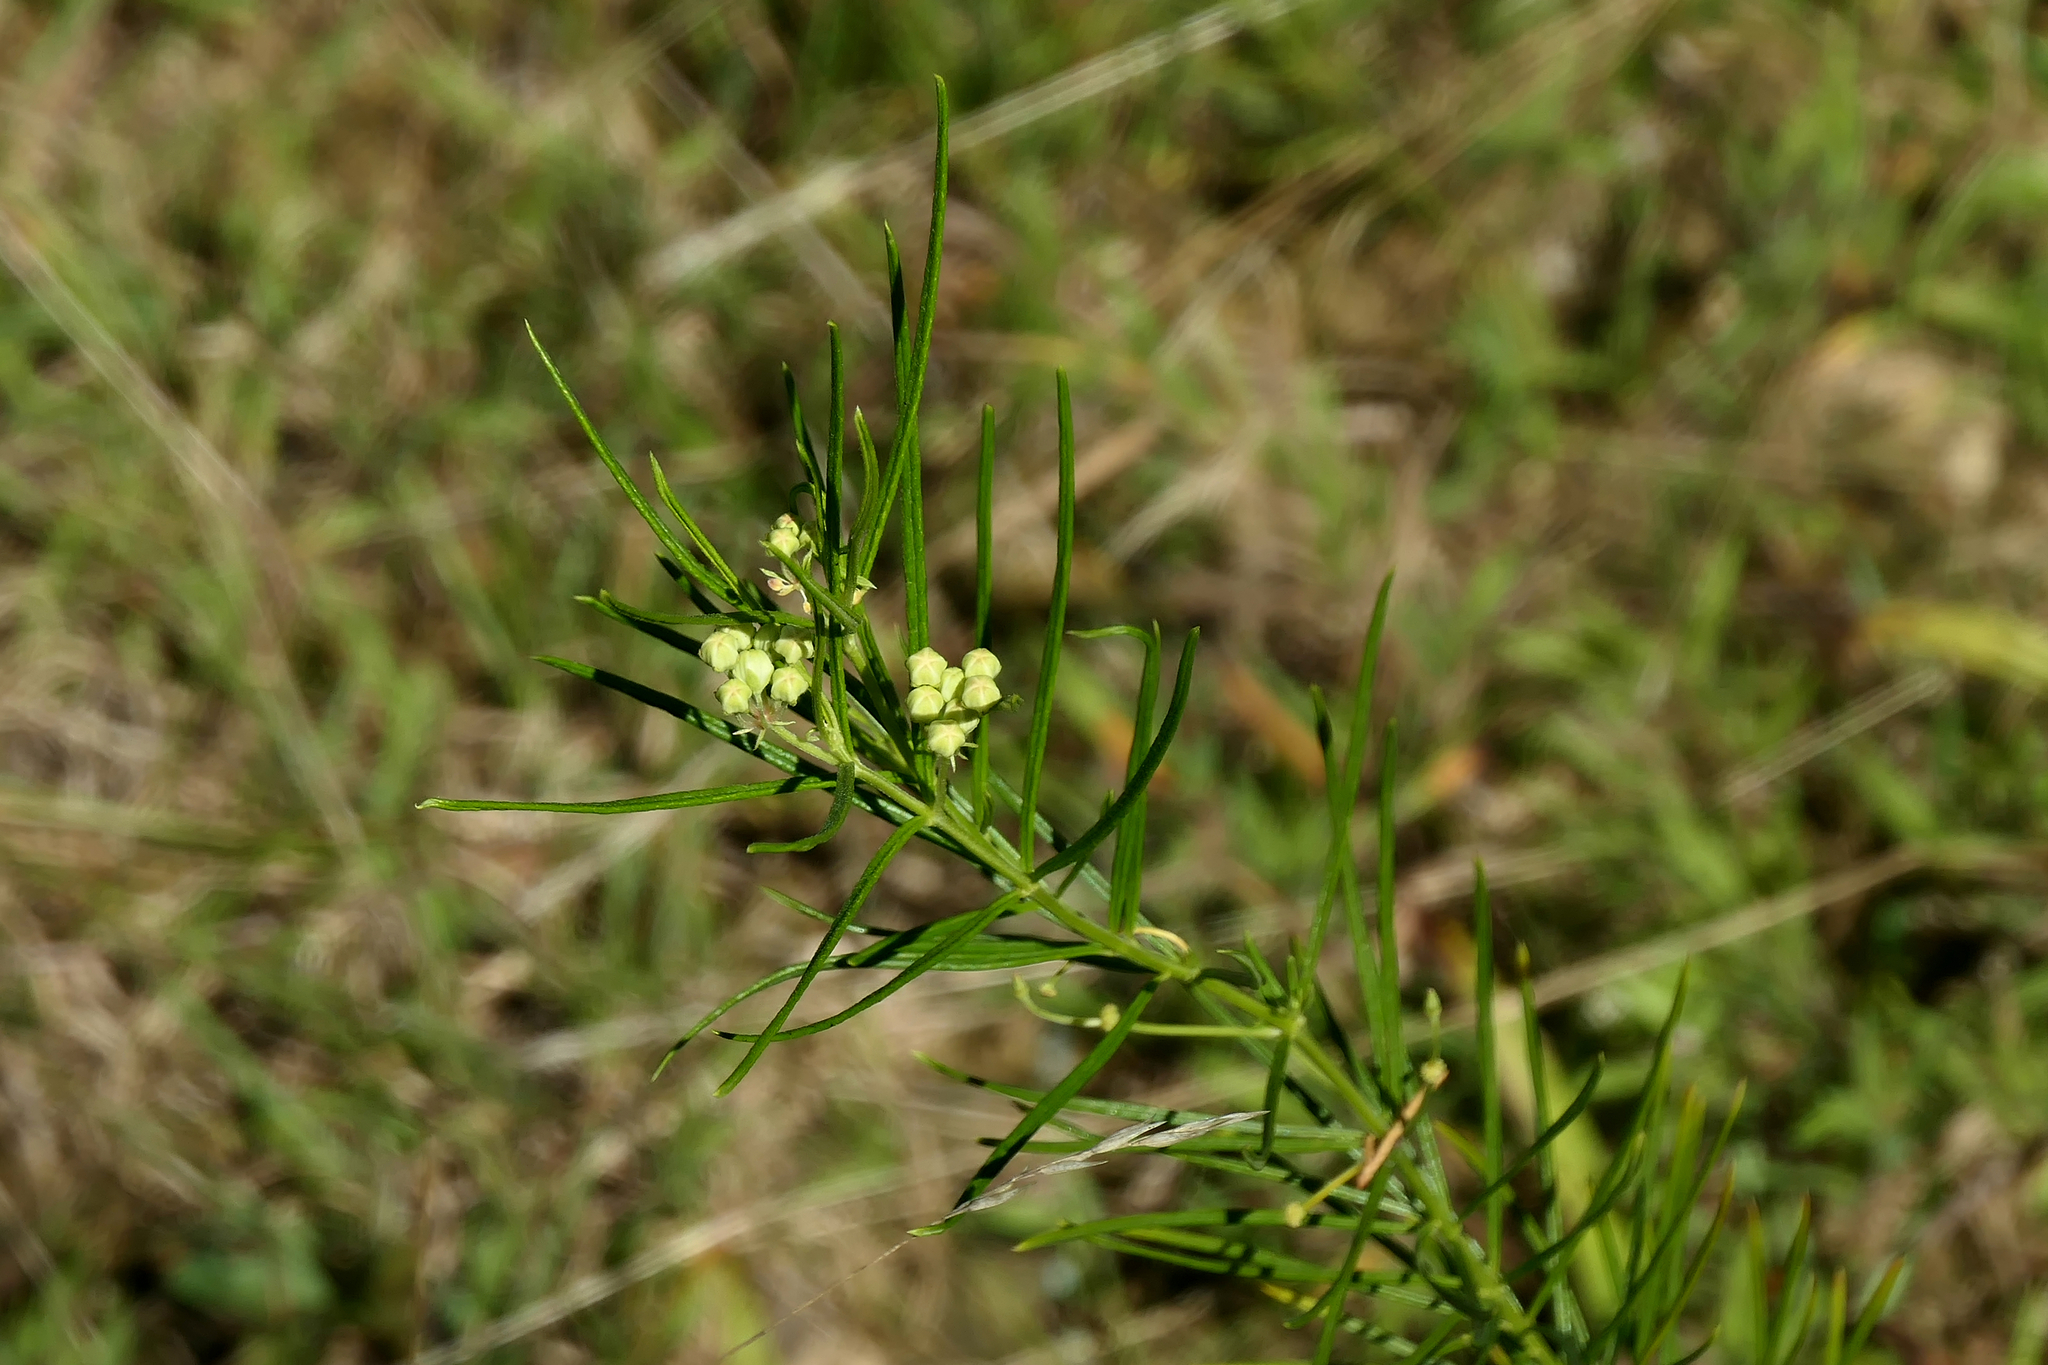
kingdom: Plantae
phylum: Tracheophyta
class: Magnoliopsida
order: Gentianales
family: Apocynaceae
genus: Asclepias
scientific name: Asclepias verticillata
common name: Eastern whorled milkweed
